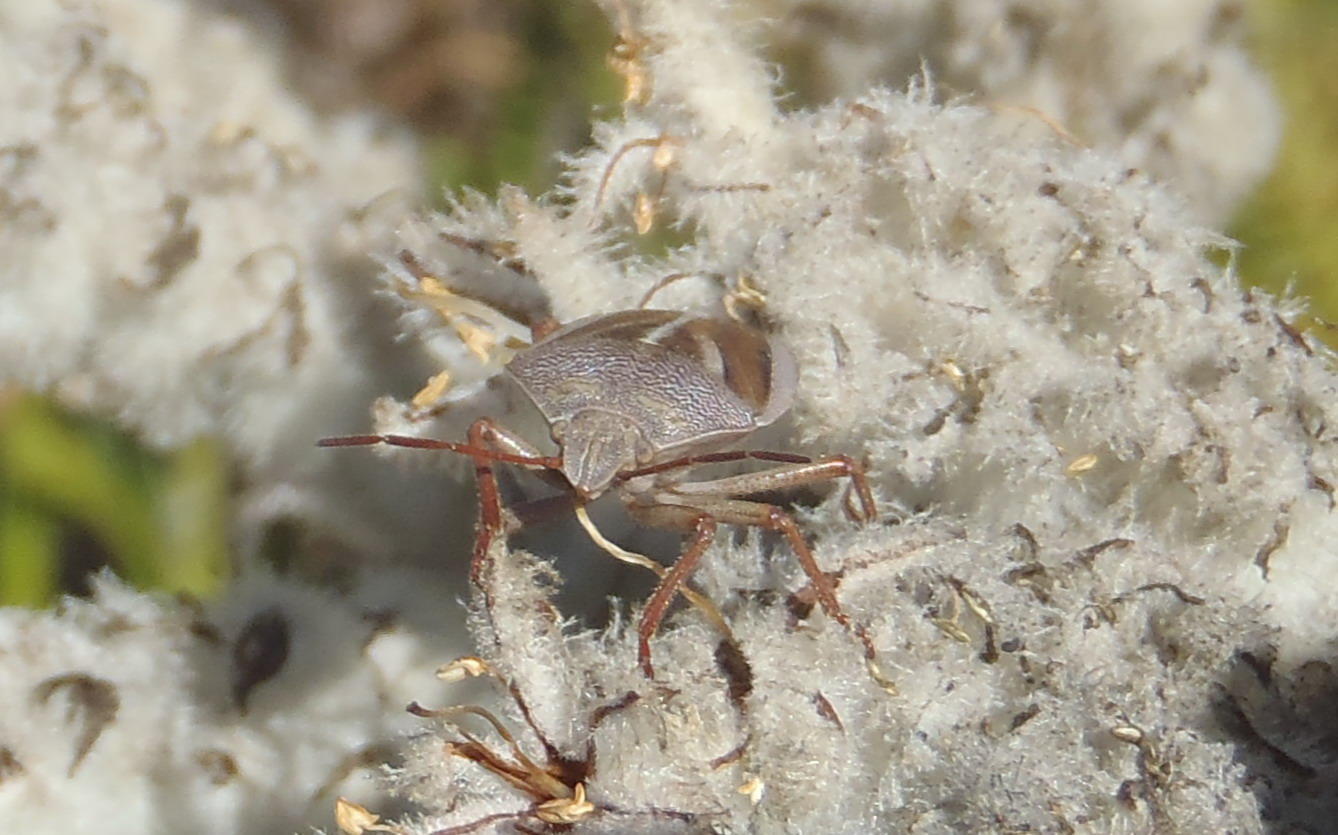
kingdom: Animalia
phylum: Arthropoda
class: Insecta
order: Hemiptera
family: Pentatomidae
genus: Theloris
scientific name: Theloris costata
